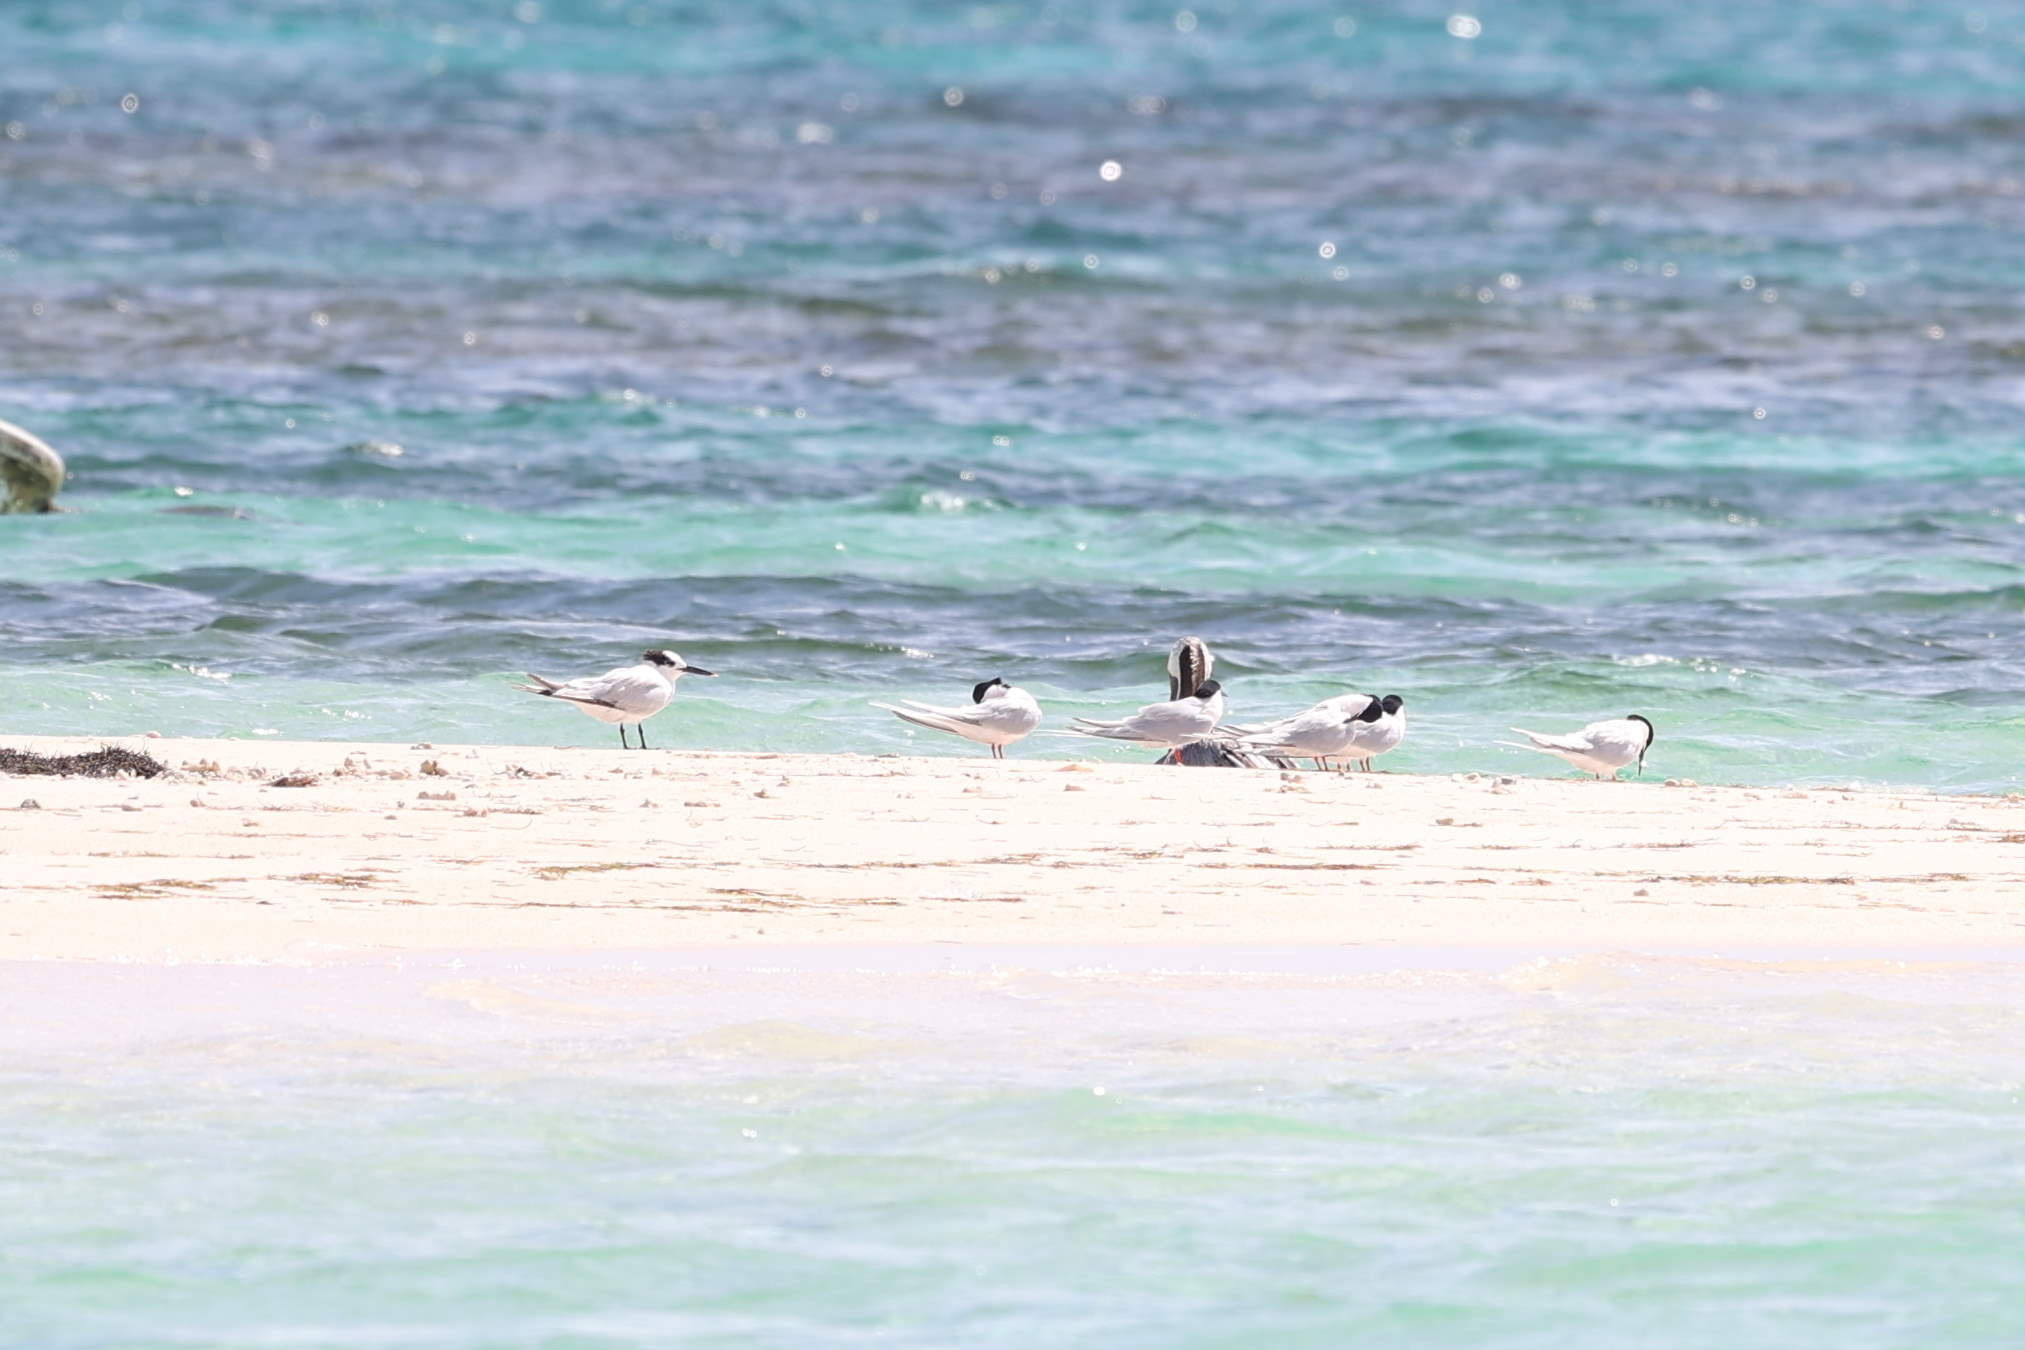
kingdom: Animalia
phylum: Chordata
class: Aves
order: Pelecaniformes
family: Pelecanidae
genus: Pelecanus
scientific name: Pelecanus occidentalis
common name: Brown pelican
